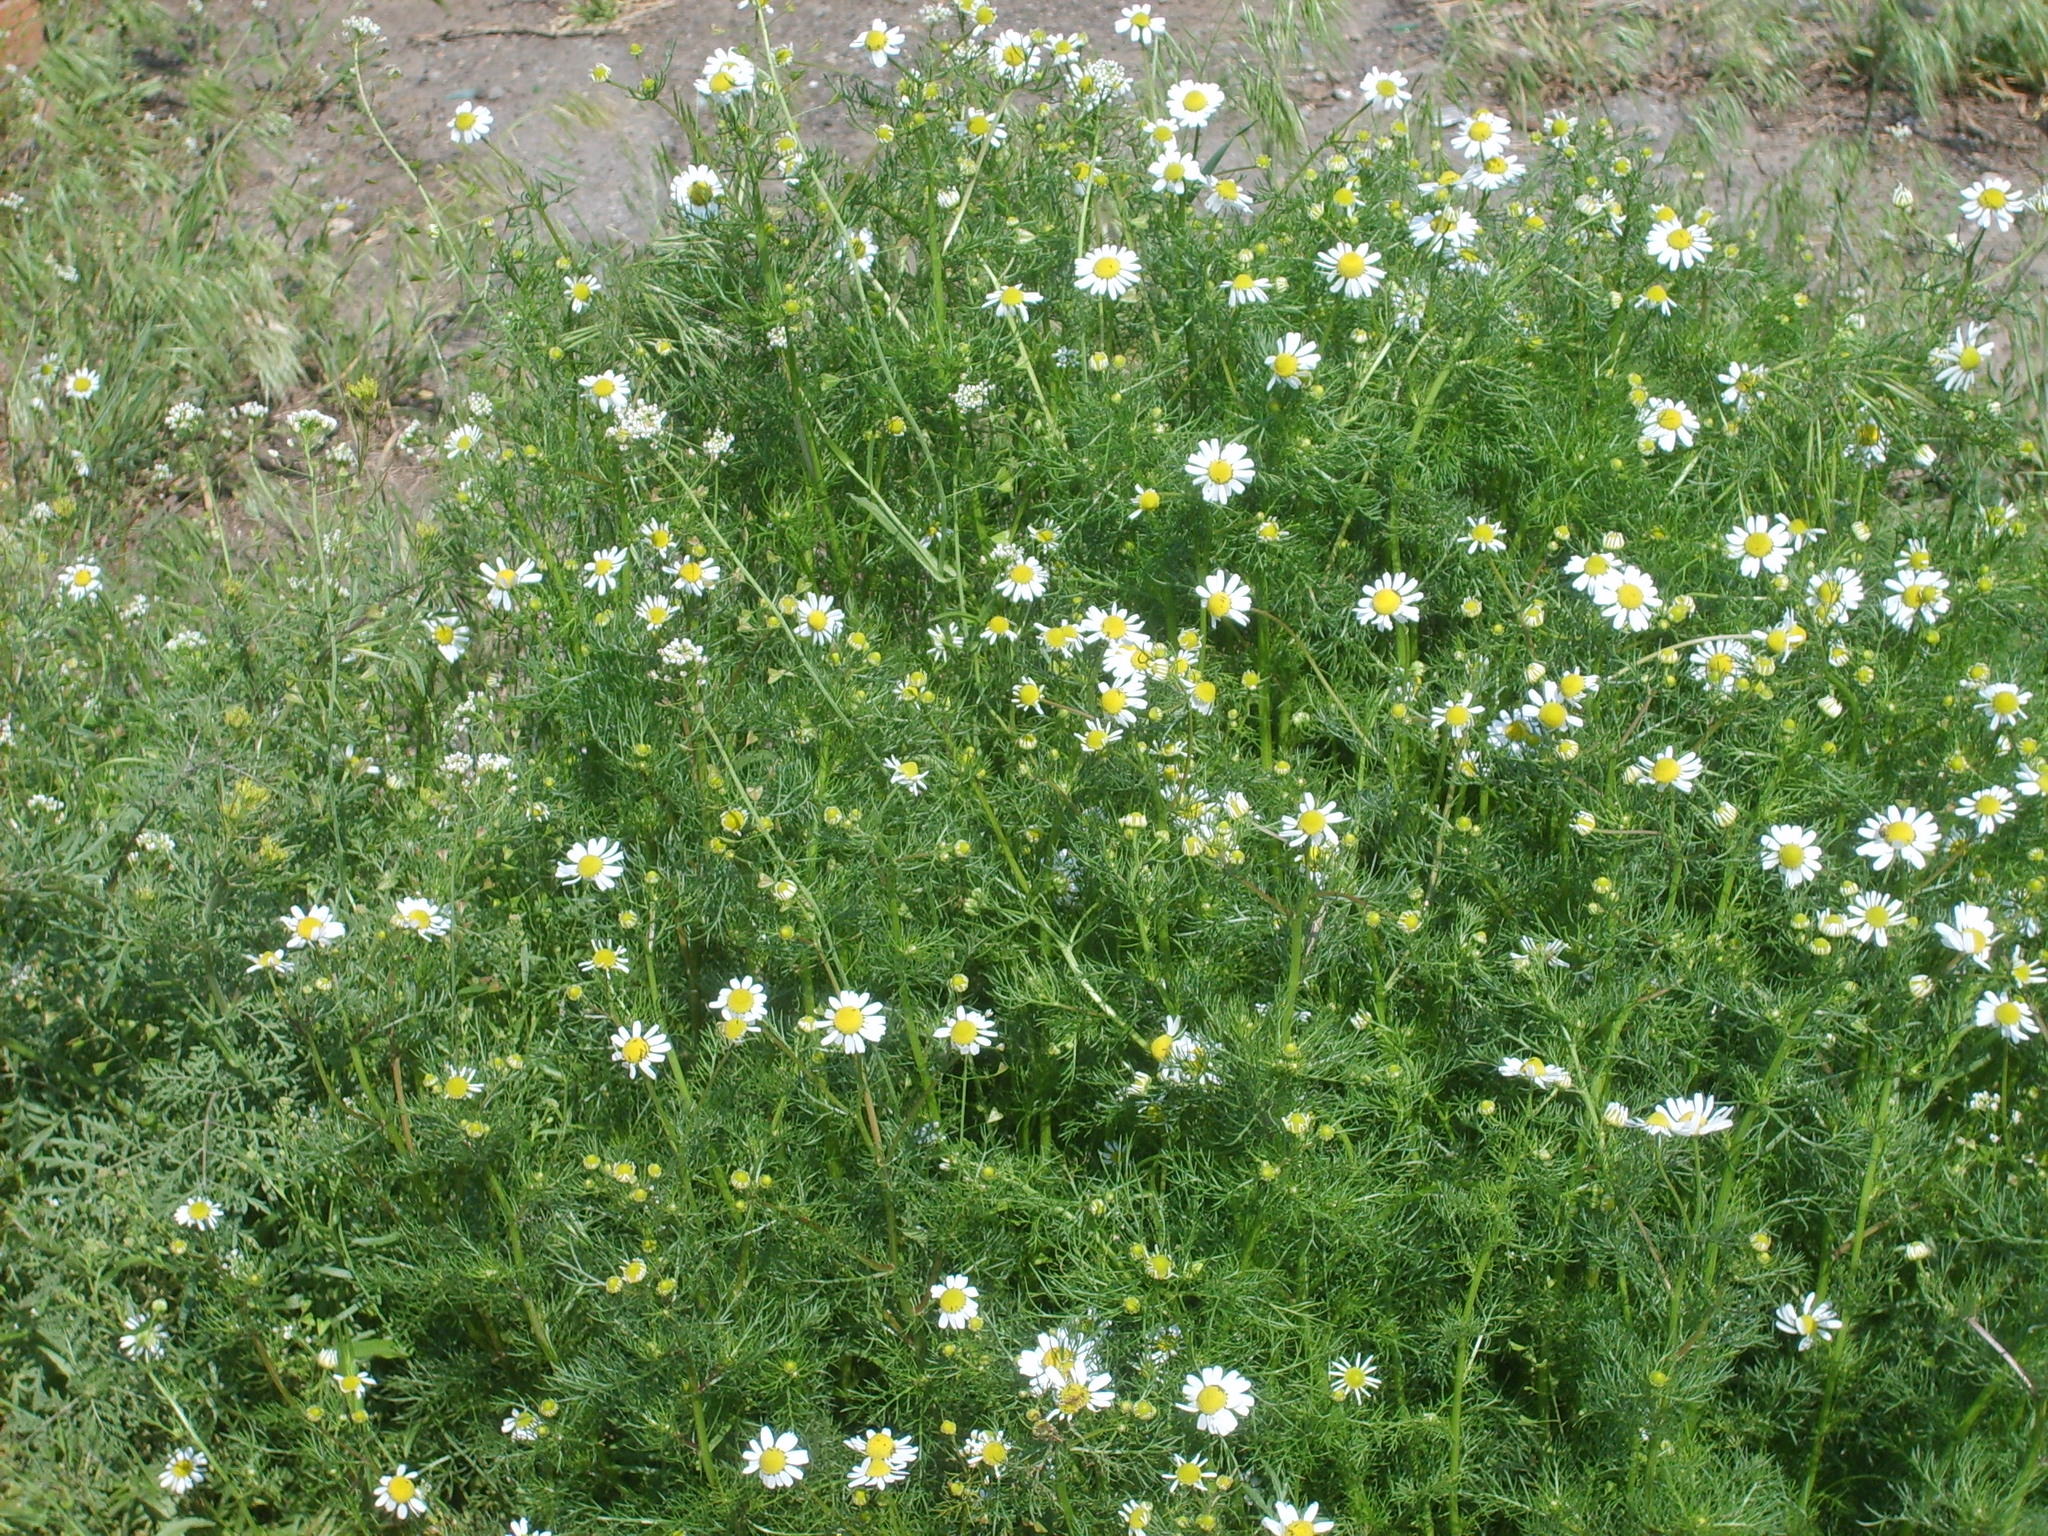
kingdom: Plantae
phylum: Tracheophyta
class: Magnoliopsida
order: Asterales
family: Asteraceae
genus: Matricaria
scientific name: Matricaria chamomilla
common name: Scented mayweed
